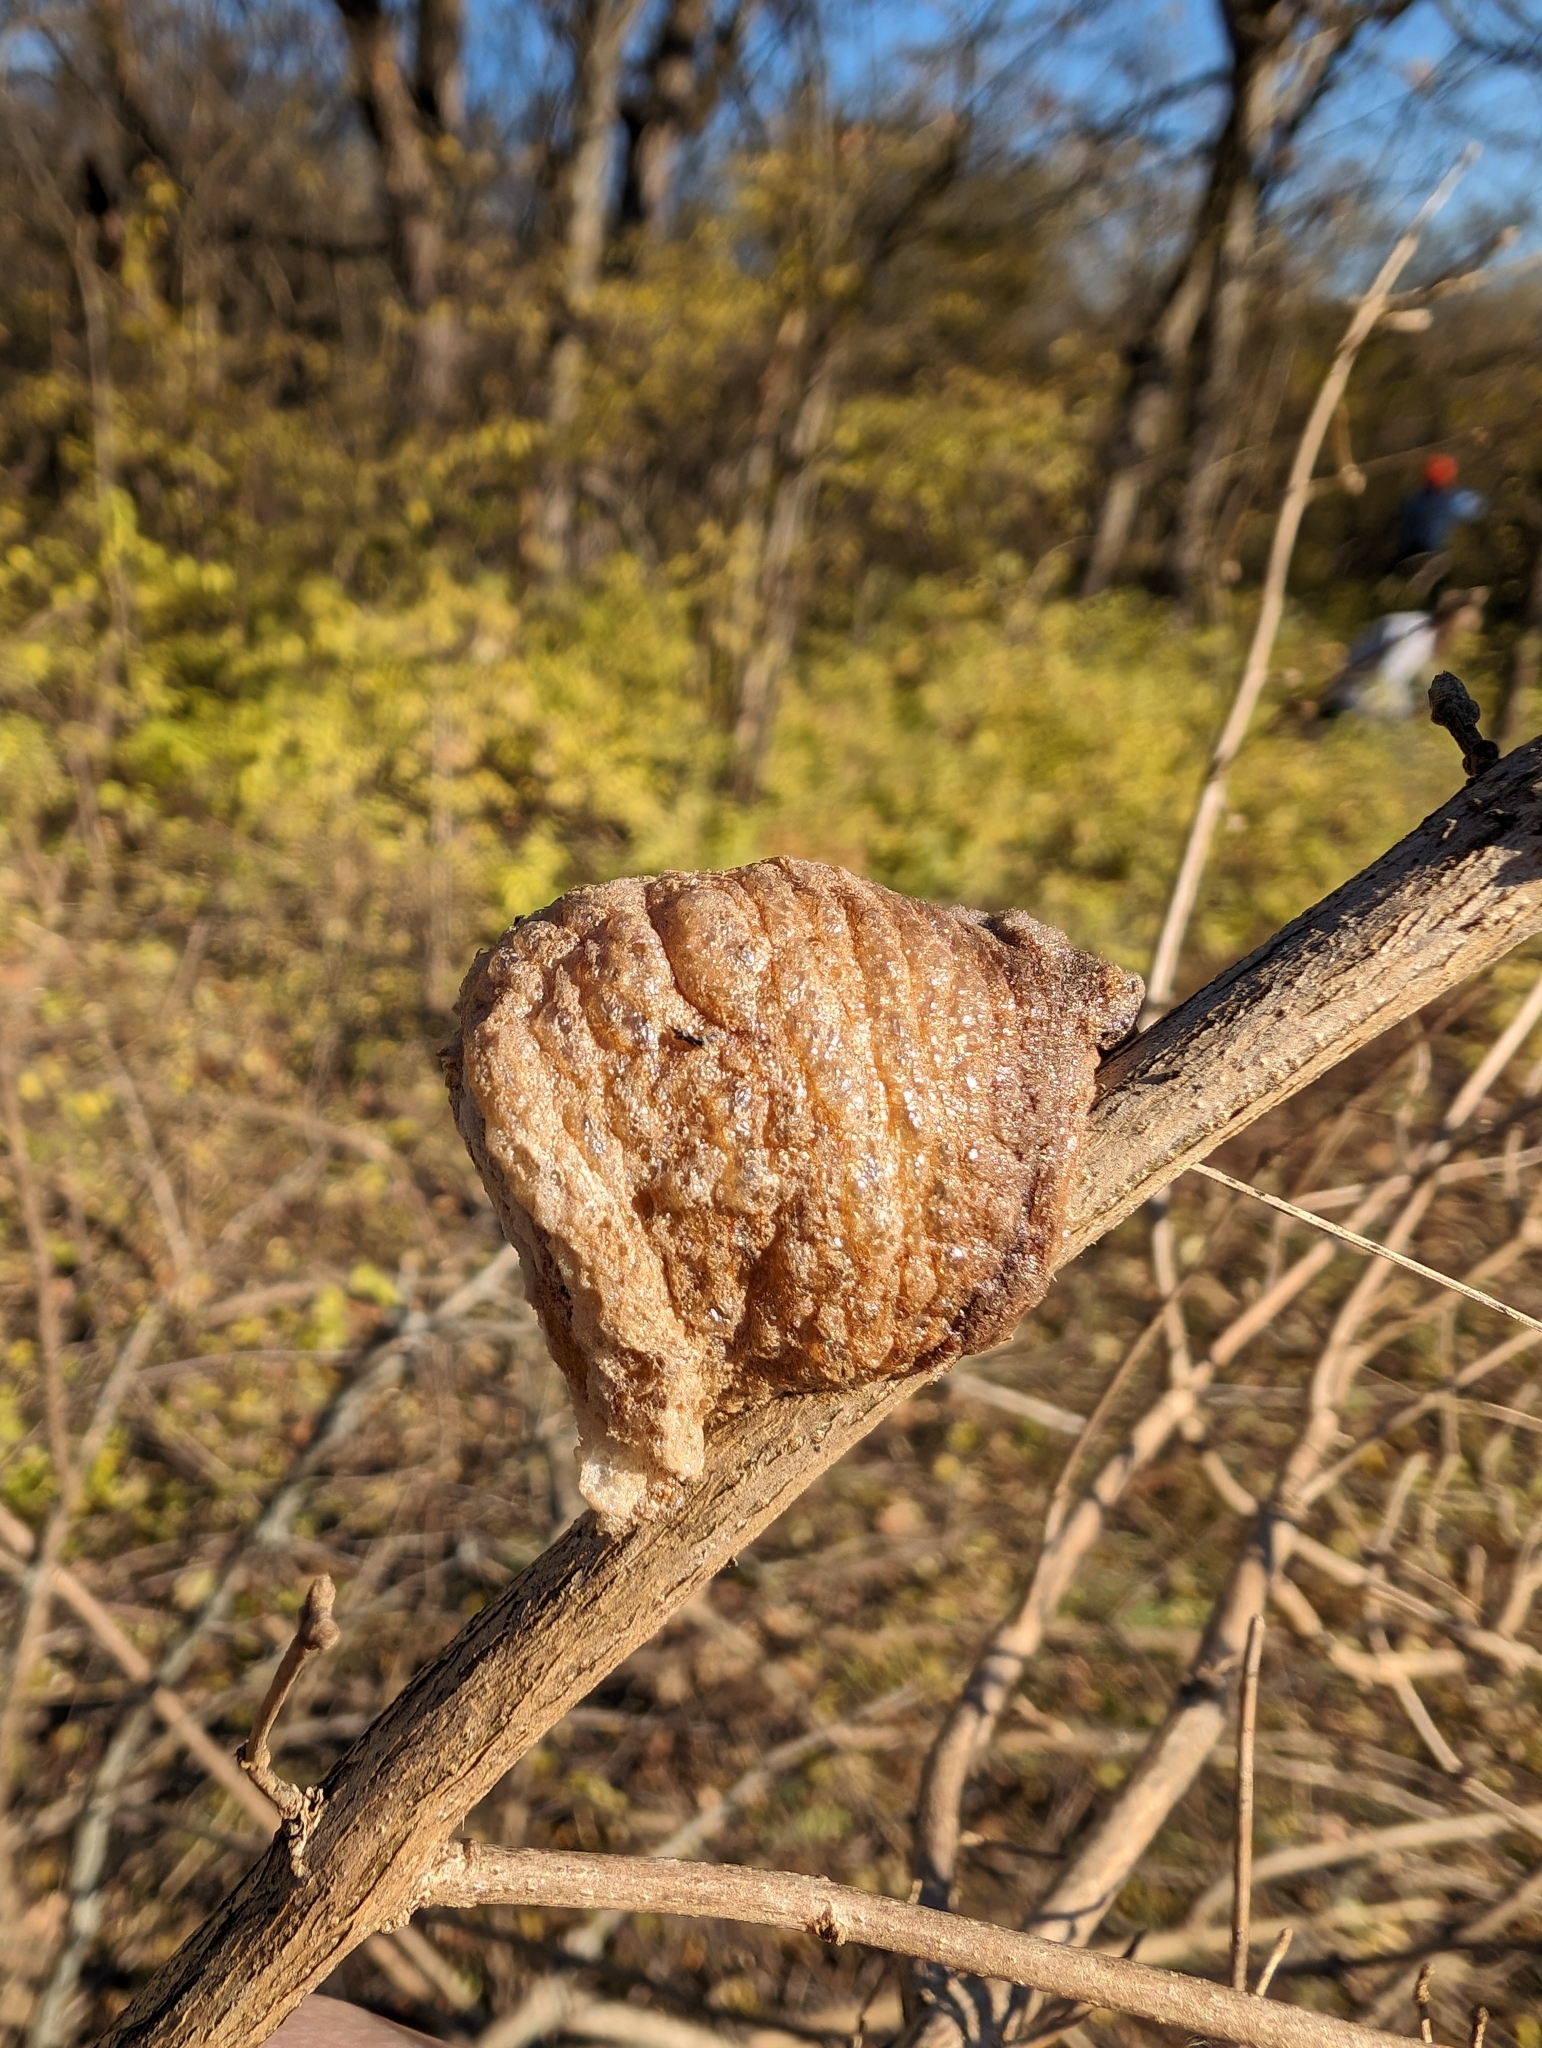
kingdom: Animalia
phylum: Arthropoda
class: Insecta
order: Mantodea
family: Mantidae
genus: Tenodera
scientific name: Tenodera sinensis
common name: Chinese mantis
